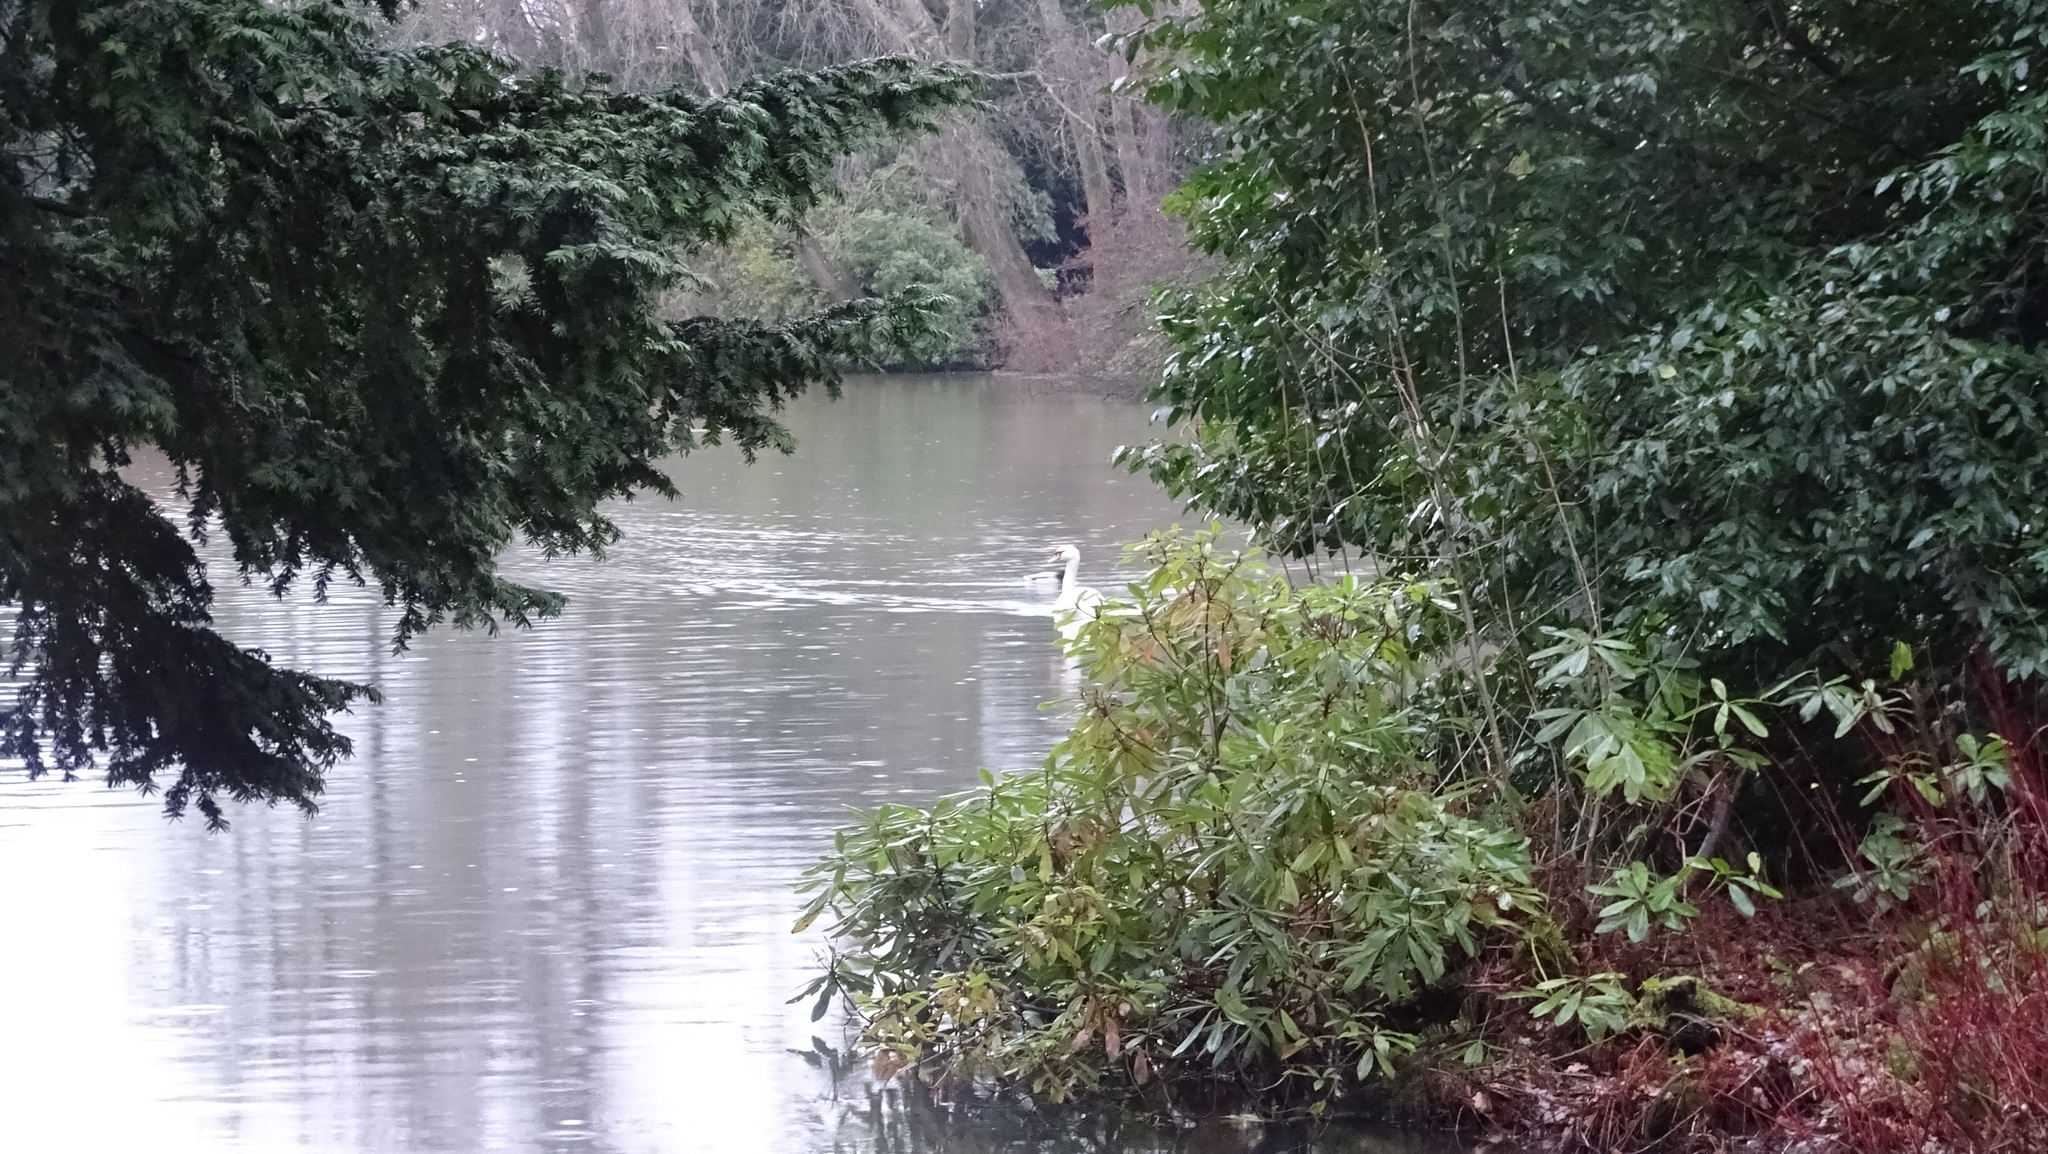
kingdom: Animalia
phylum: Chordata
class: Aves
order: Anseriformes
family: Anatidae
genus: Cygnus
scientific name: Cygnus olor
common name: Mute swan
